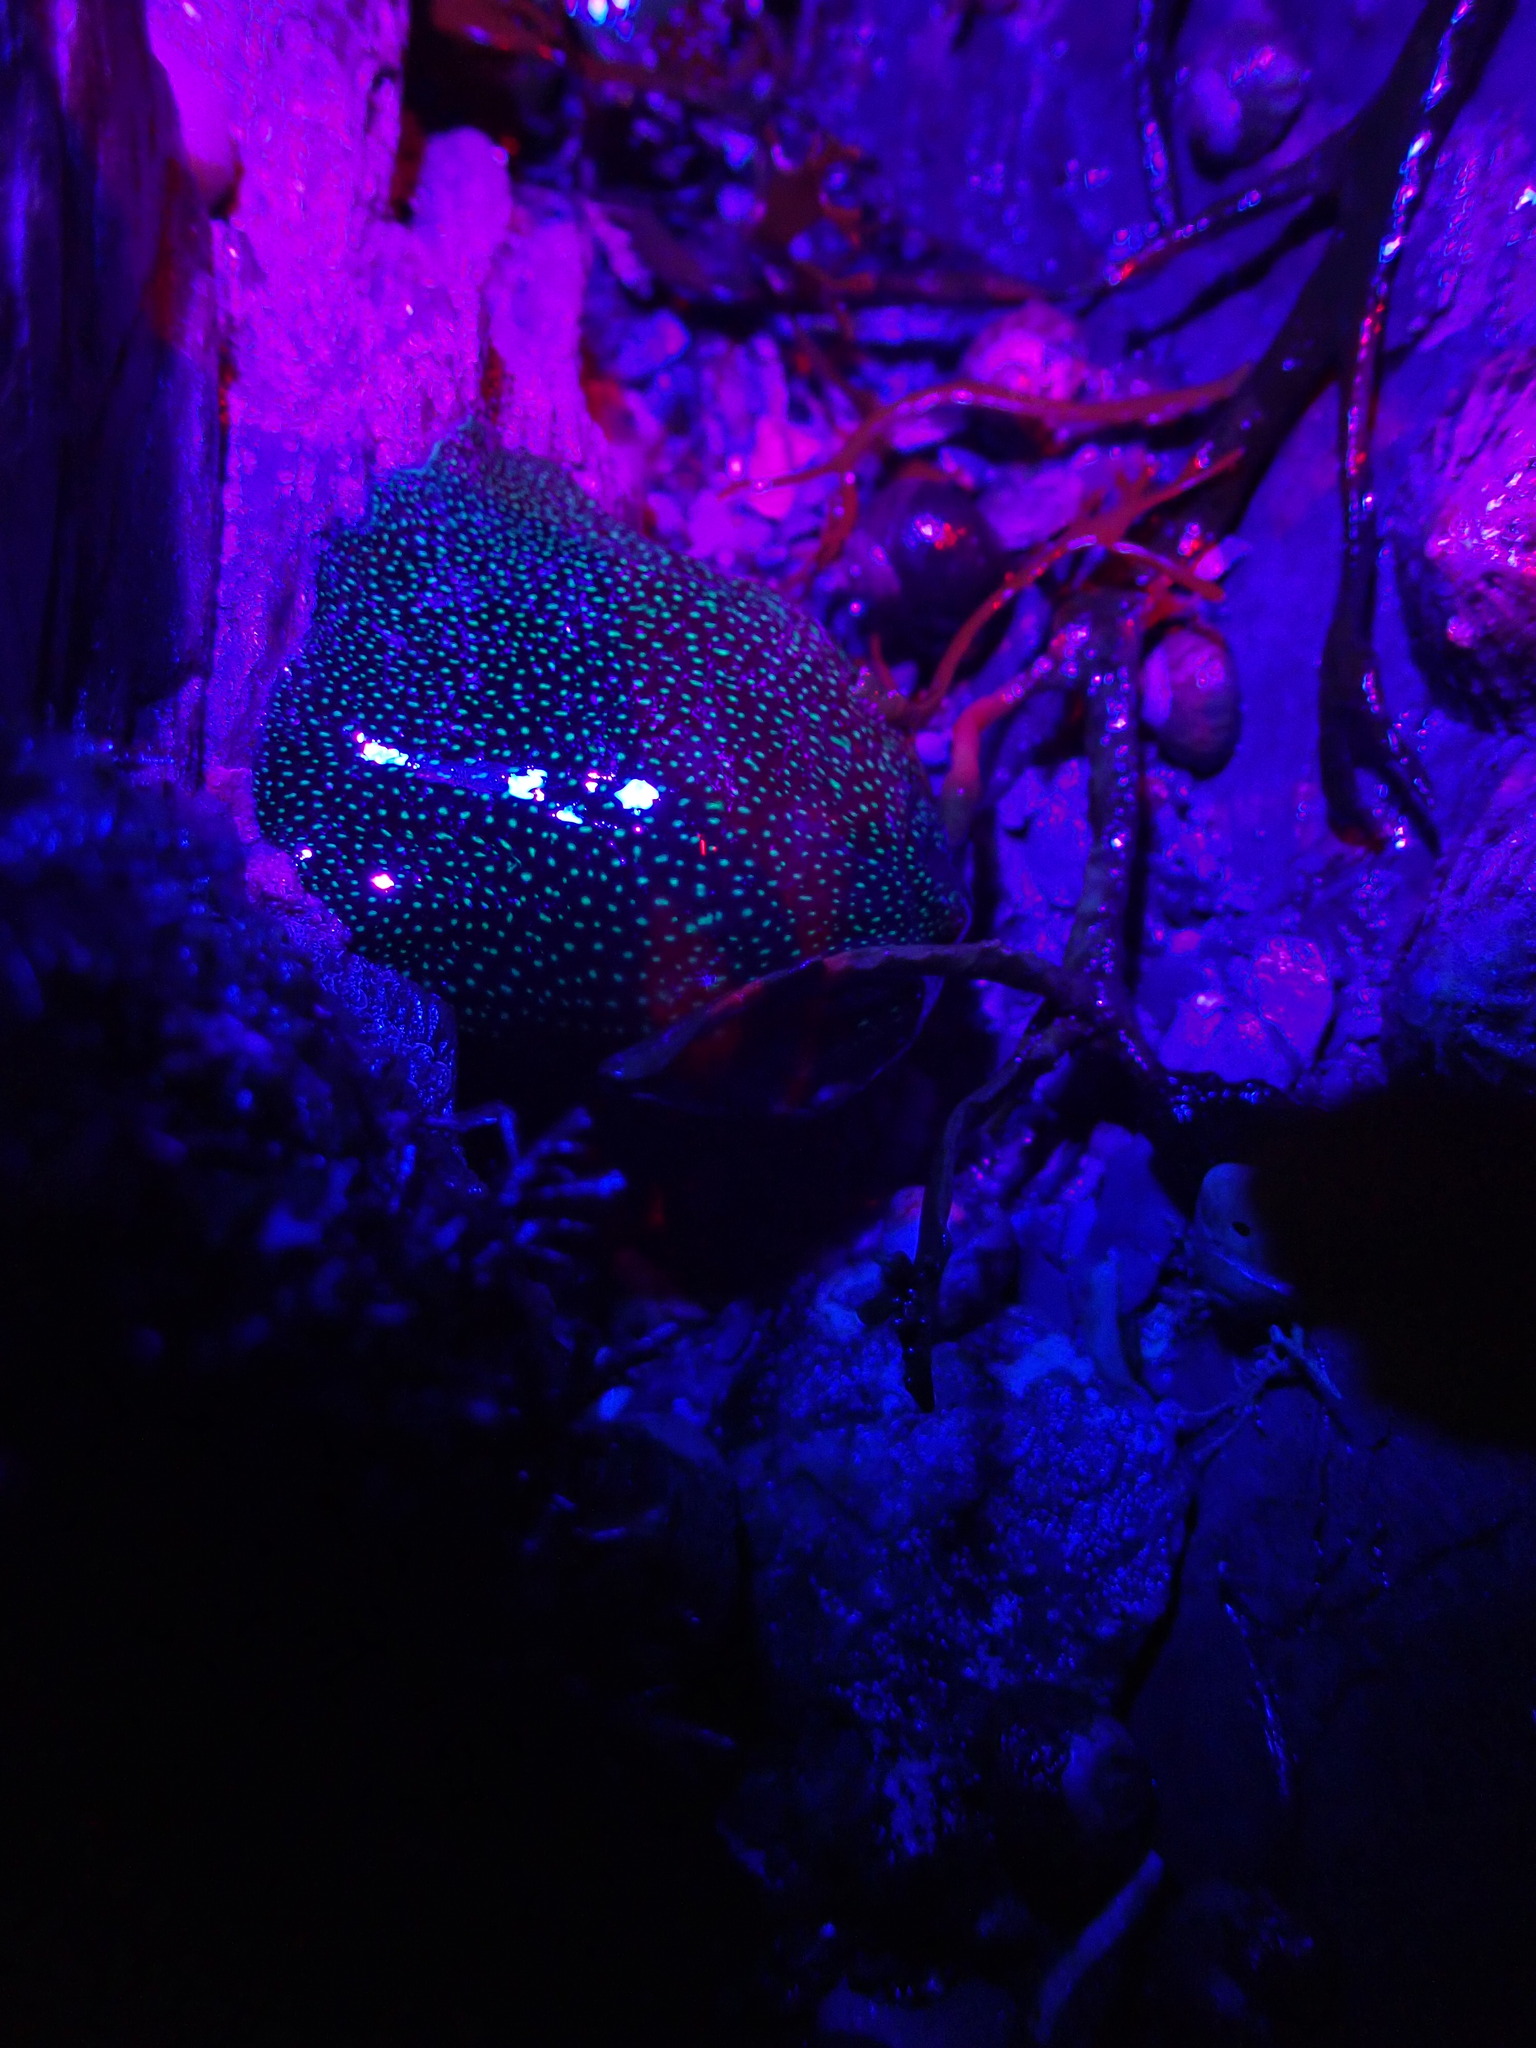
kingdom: Animalia
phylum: Cnidaria
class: Anthozoa
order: Actiniaria
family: Actiniidae
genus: Actinia
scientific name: Actinia fragacea
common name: Strawberry anemone
